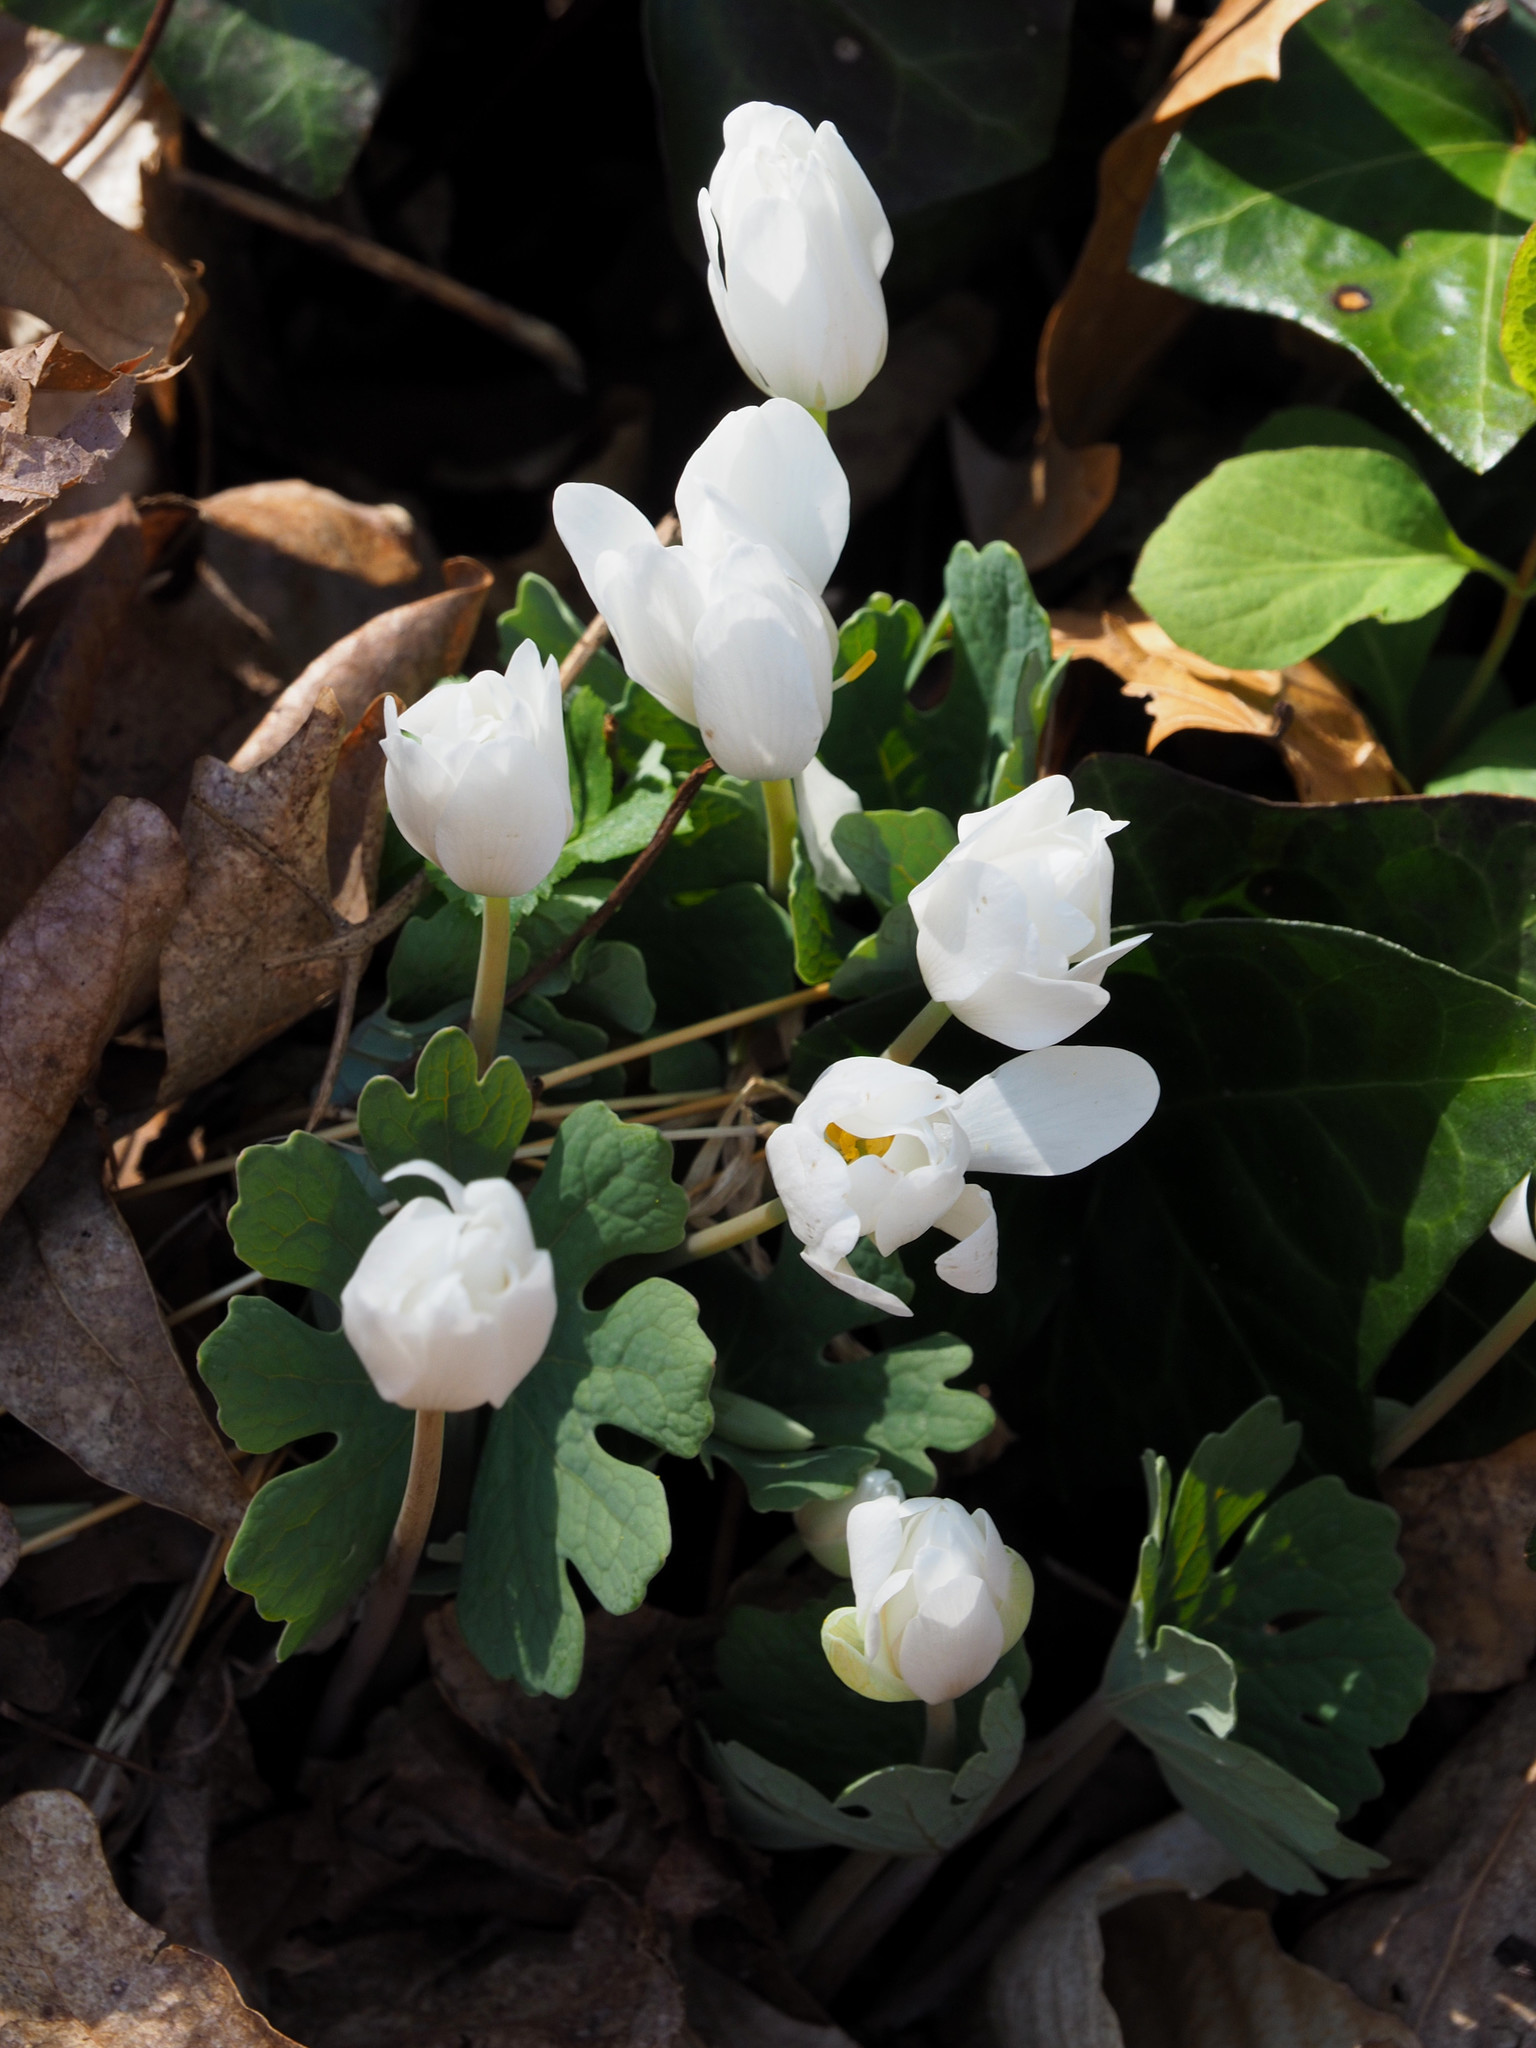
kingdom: Plantae
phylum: Tracheophyta
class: Magnoliopsida
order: Ranunculales
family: Papaveraceae
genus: Sanguinaria
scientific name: Sanguinaria canadensis
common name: Bloodroot
